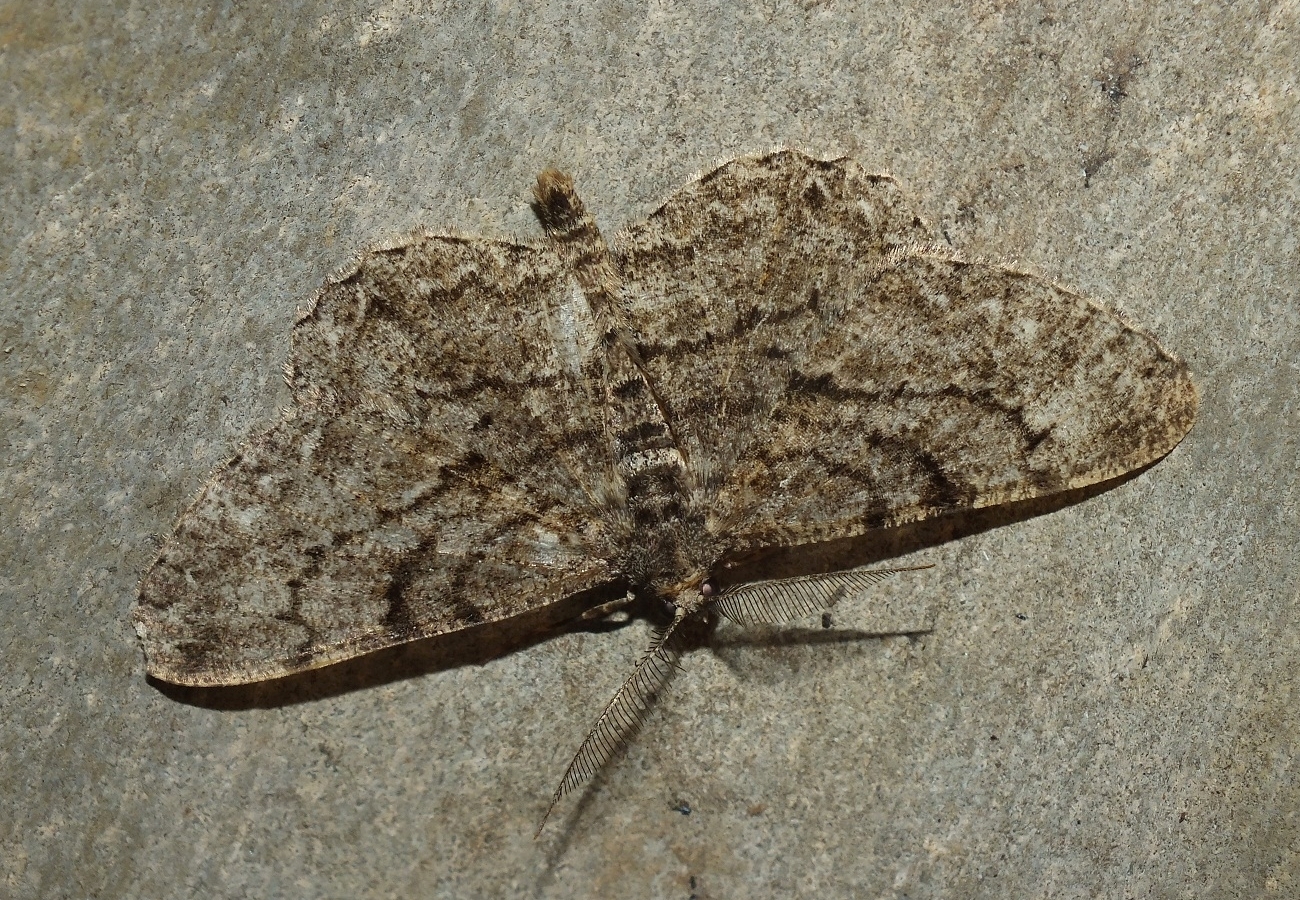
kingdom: Animalia
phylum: Arthropoda
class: Insecta
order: Lepidoptera
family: Geometridae
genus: Peribatodes
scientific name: Peribatodes rhomboidaria
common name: Willow beauty
